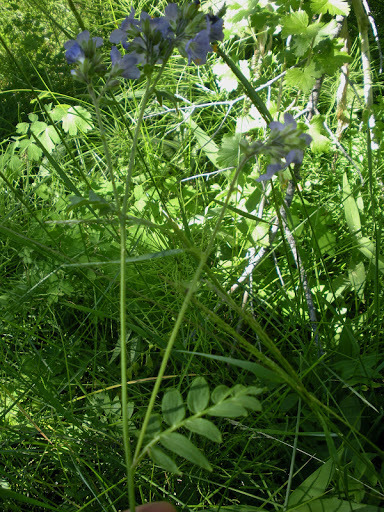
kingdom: Plantae
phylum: Tracheophyta
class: Magnoliopsida
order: Ericales
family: Polemoniaceae
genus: Polemonium
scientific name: Polemonium occidentale
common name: Western jacob's-ladder
